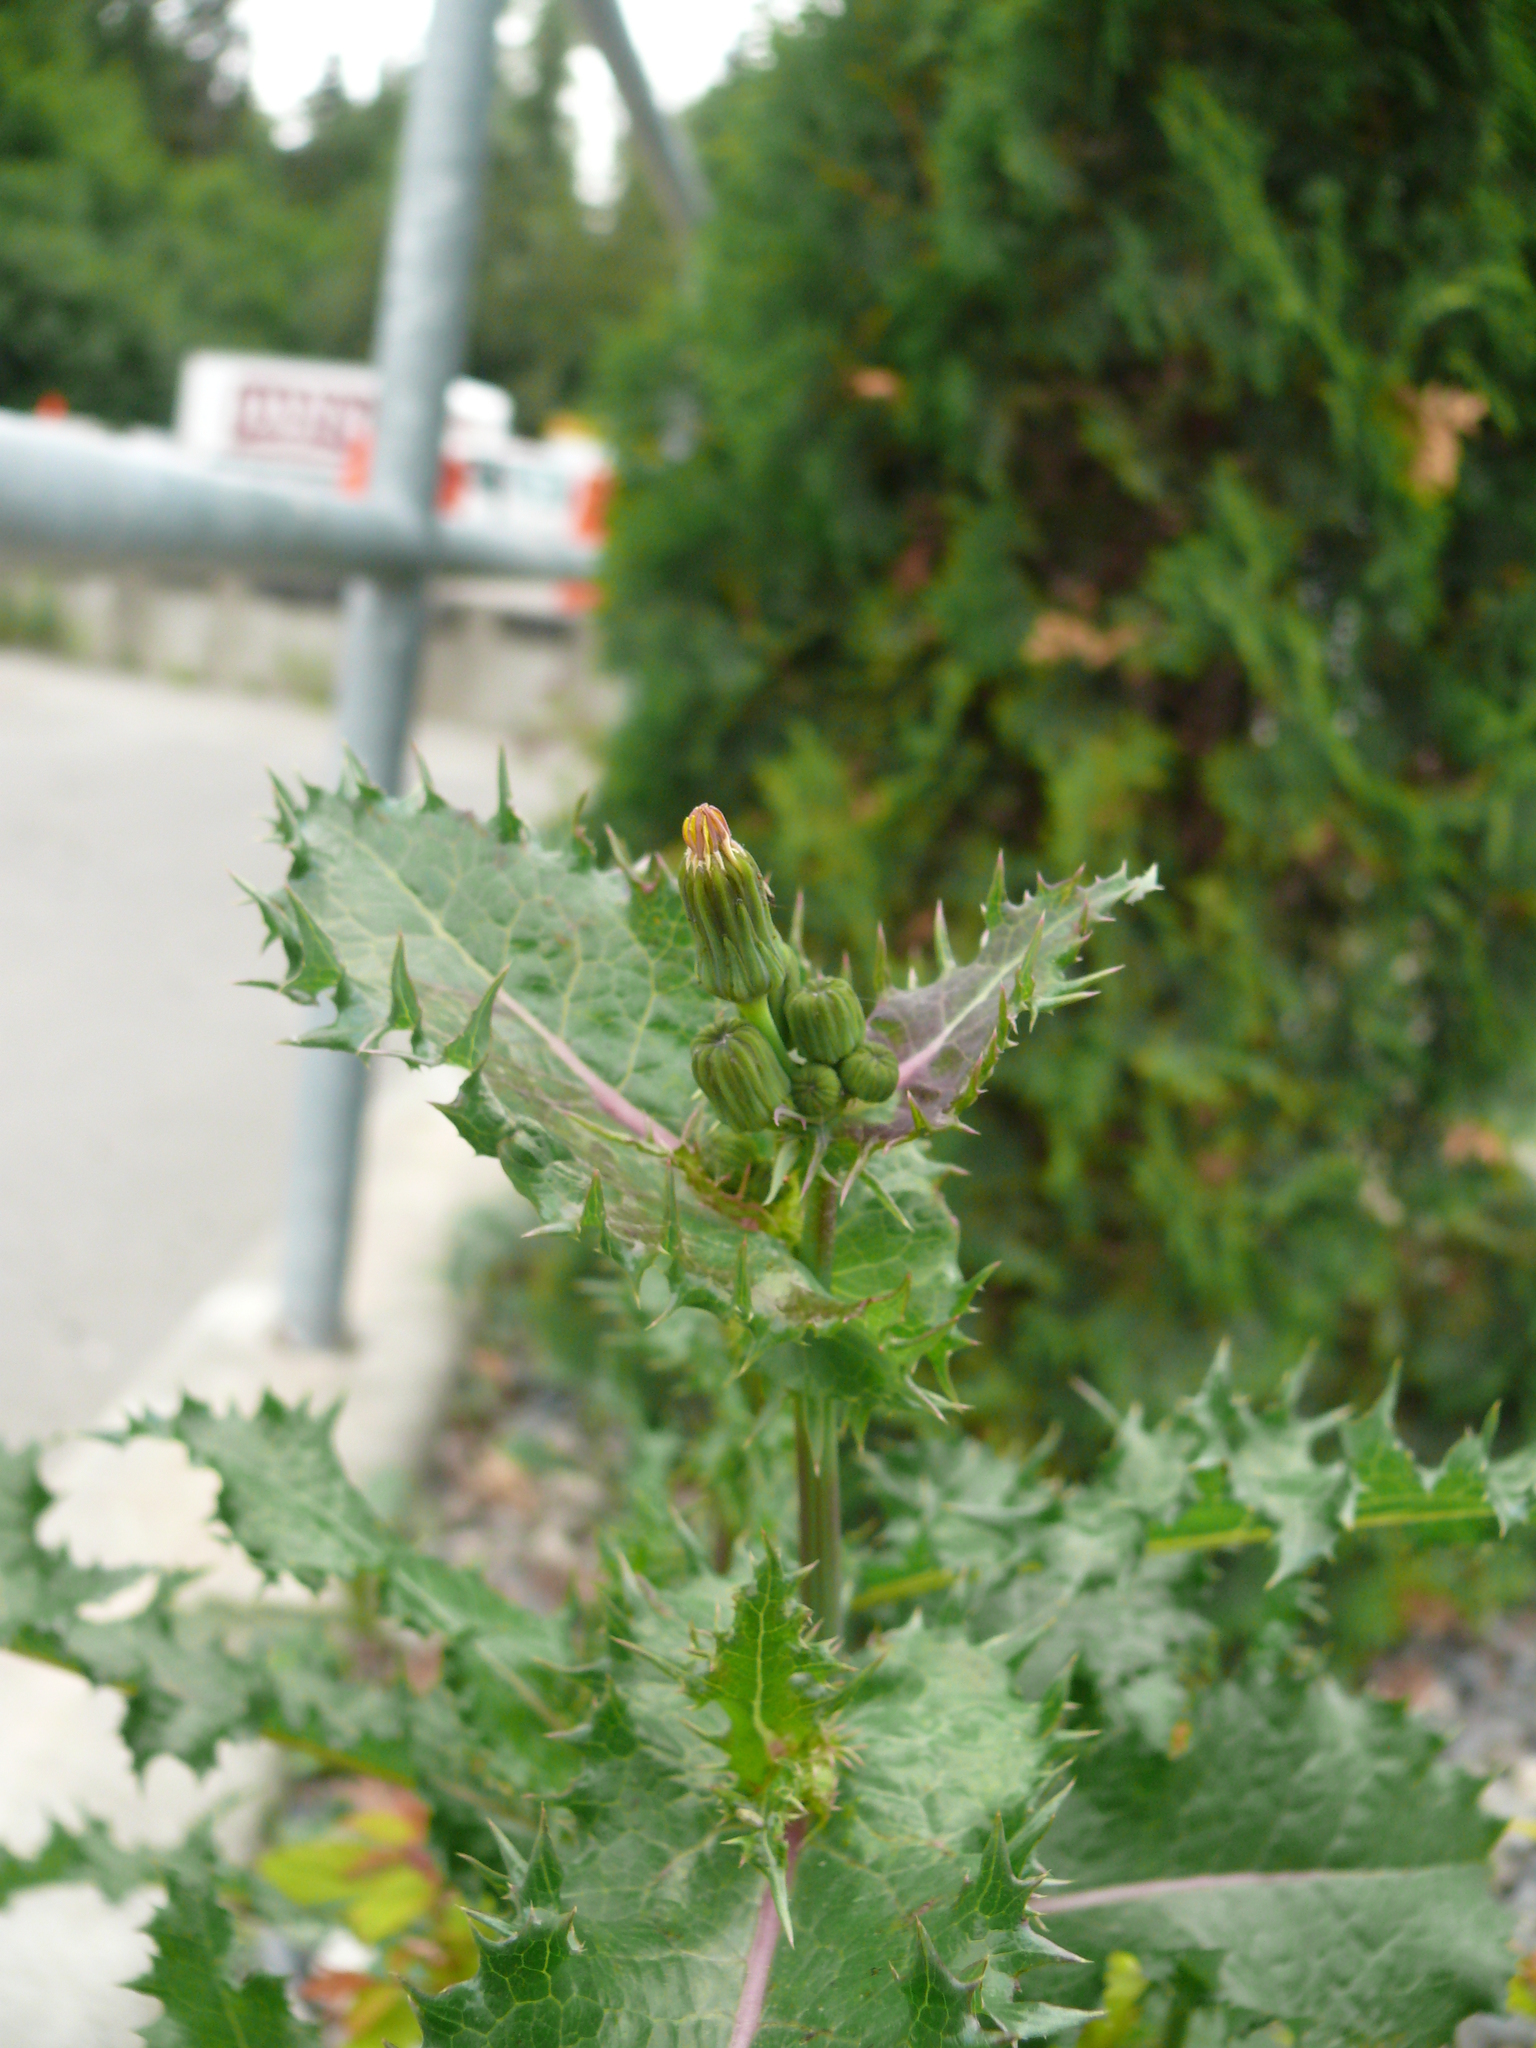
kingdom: Plantae
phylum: Tracheophyta
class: Magnoliopsida
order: Asterales
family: Asteraceae
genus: Sonchus
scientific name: Sonchus asper
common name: Prickly sow-thistle
